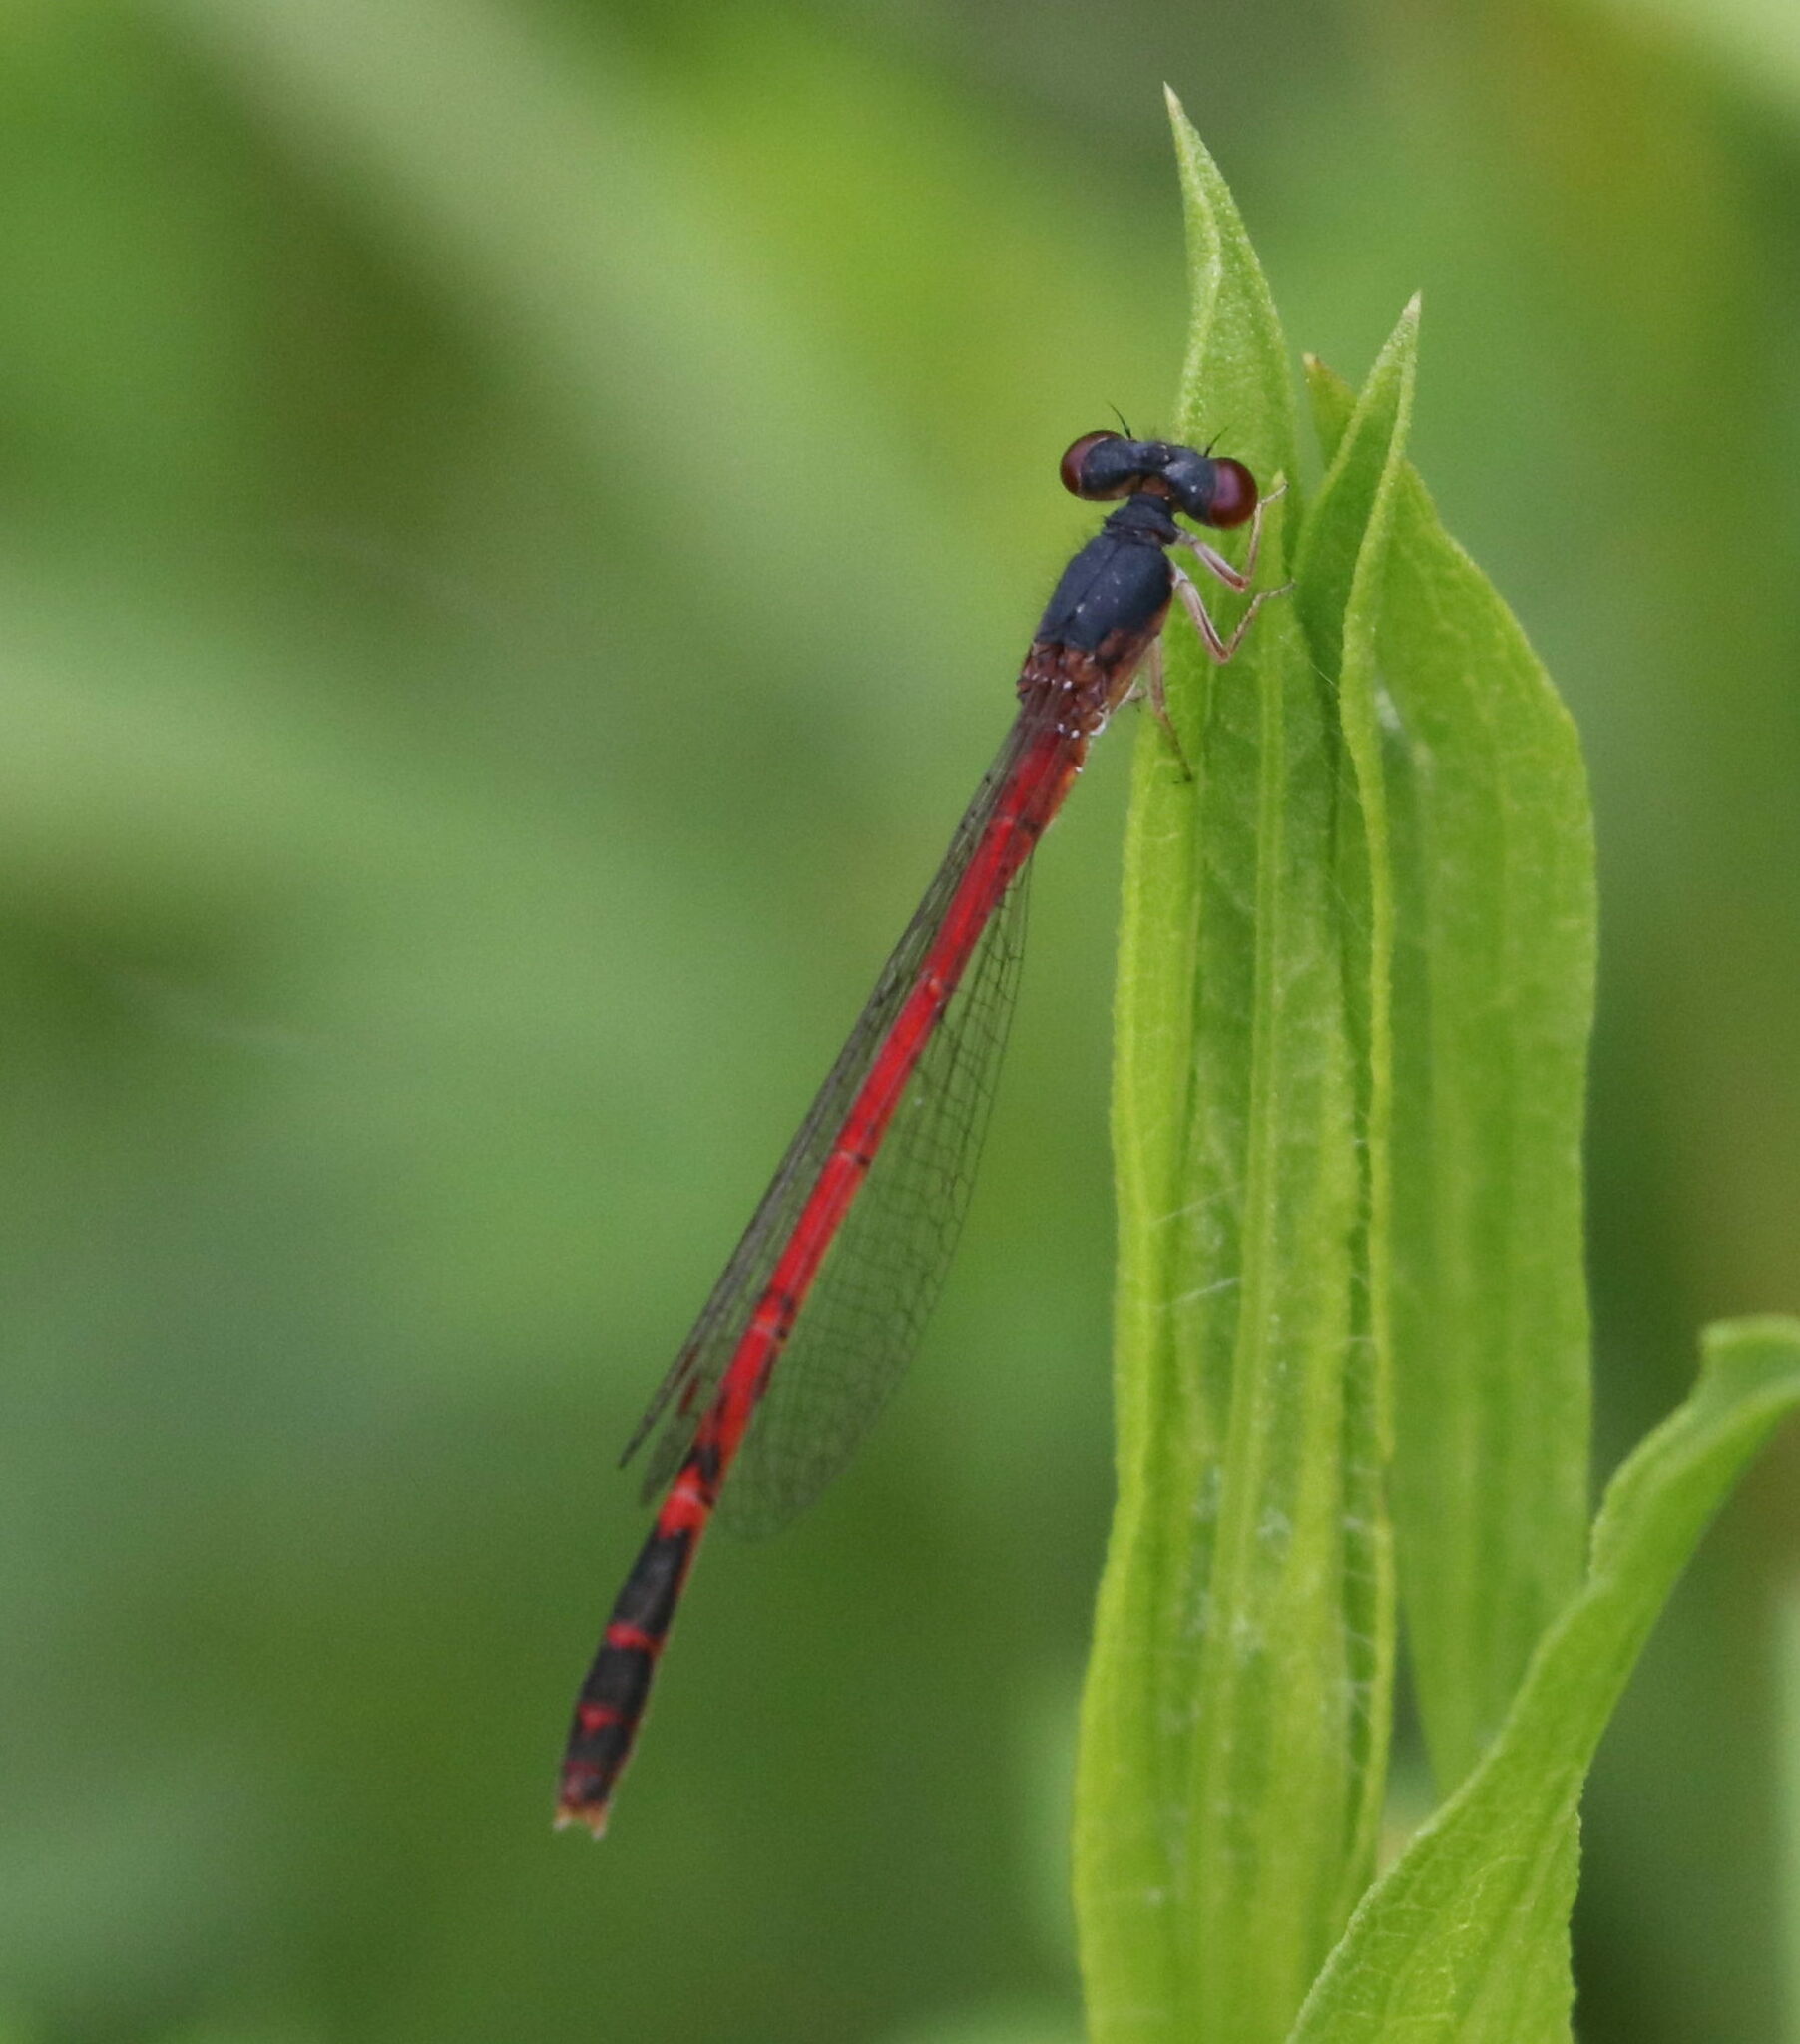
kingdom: Animalia
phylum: Arthropoda
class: Insecta
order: Odonata
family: Coenagrionidae
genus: Amphiagrion
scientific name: Amphiagrion saucium
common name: Eastern red damsel
